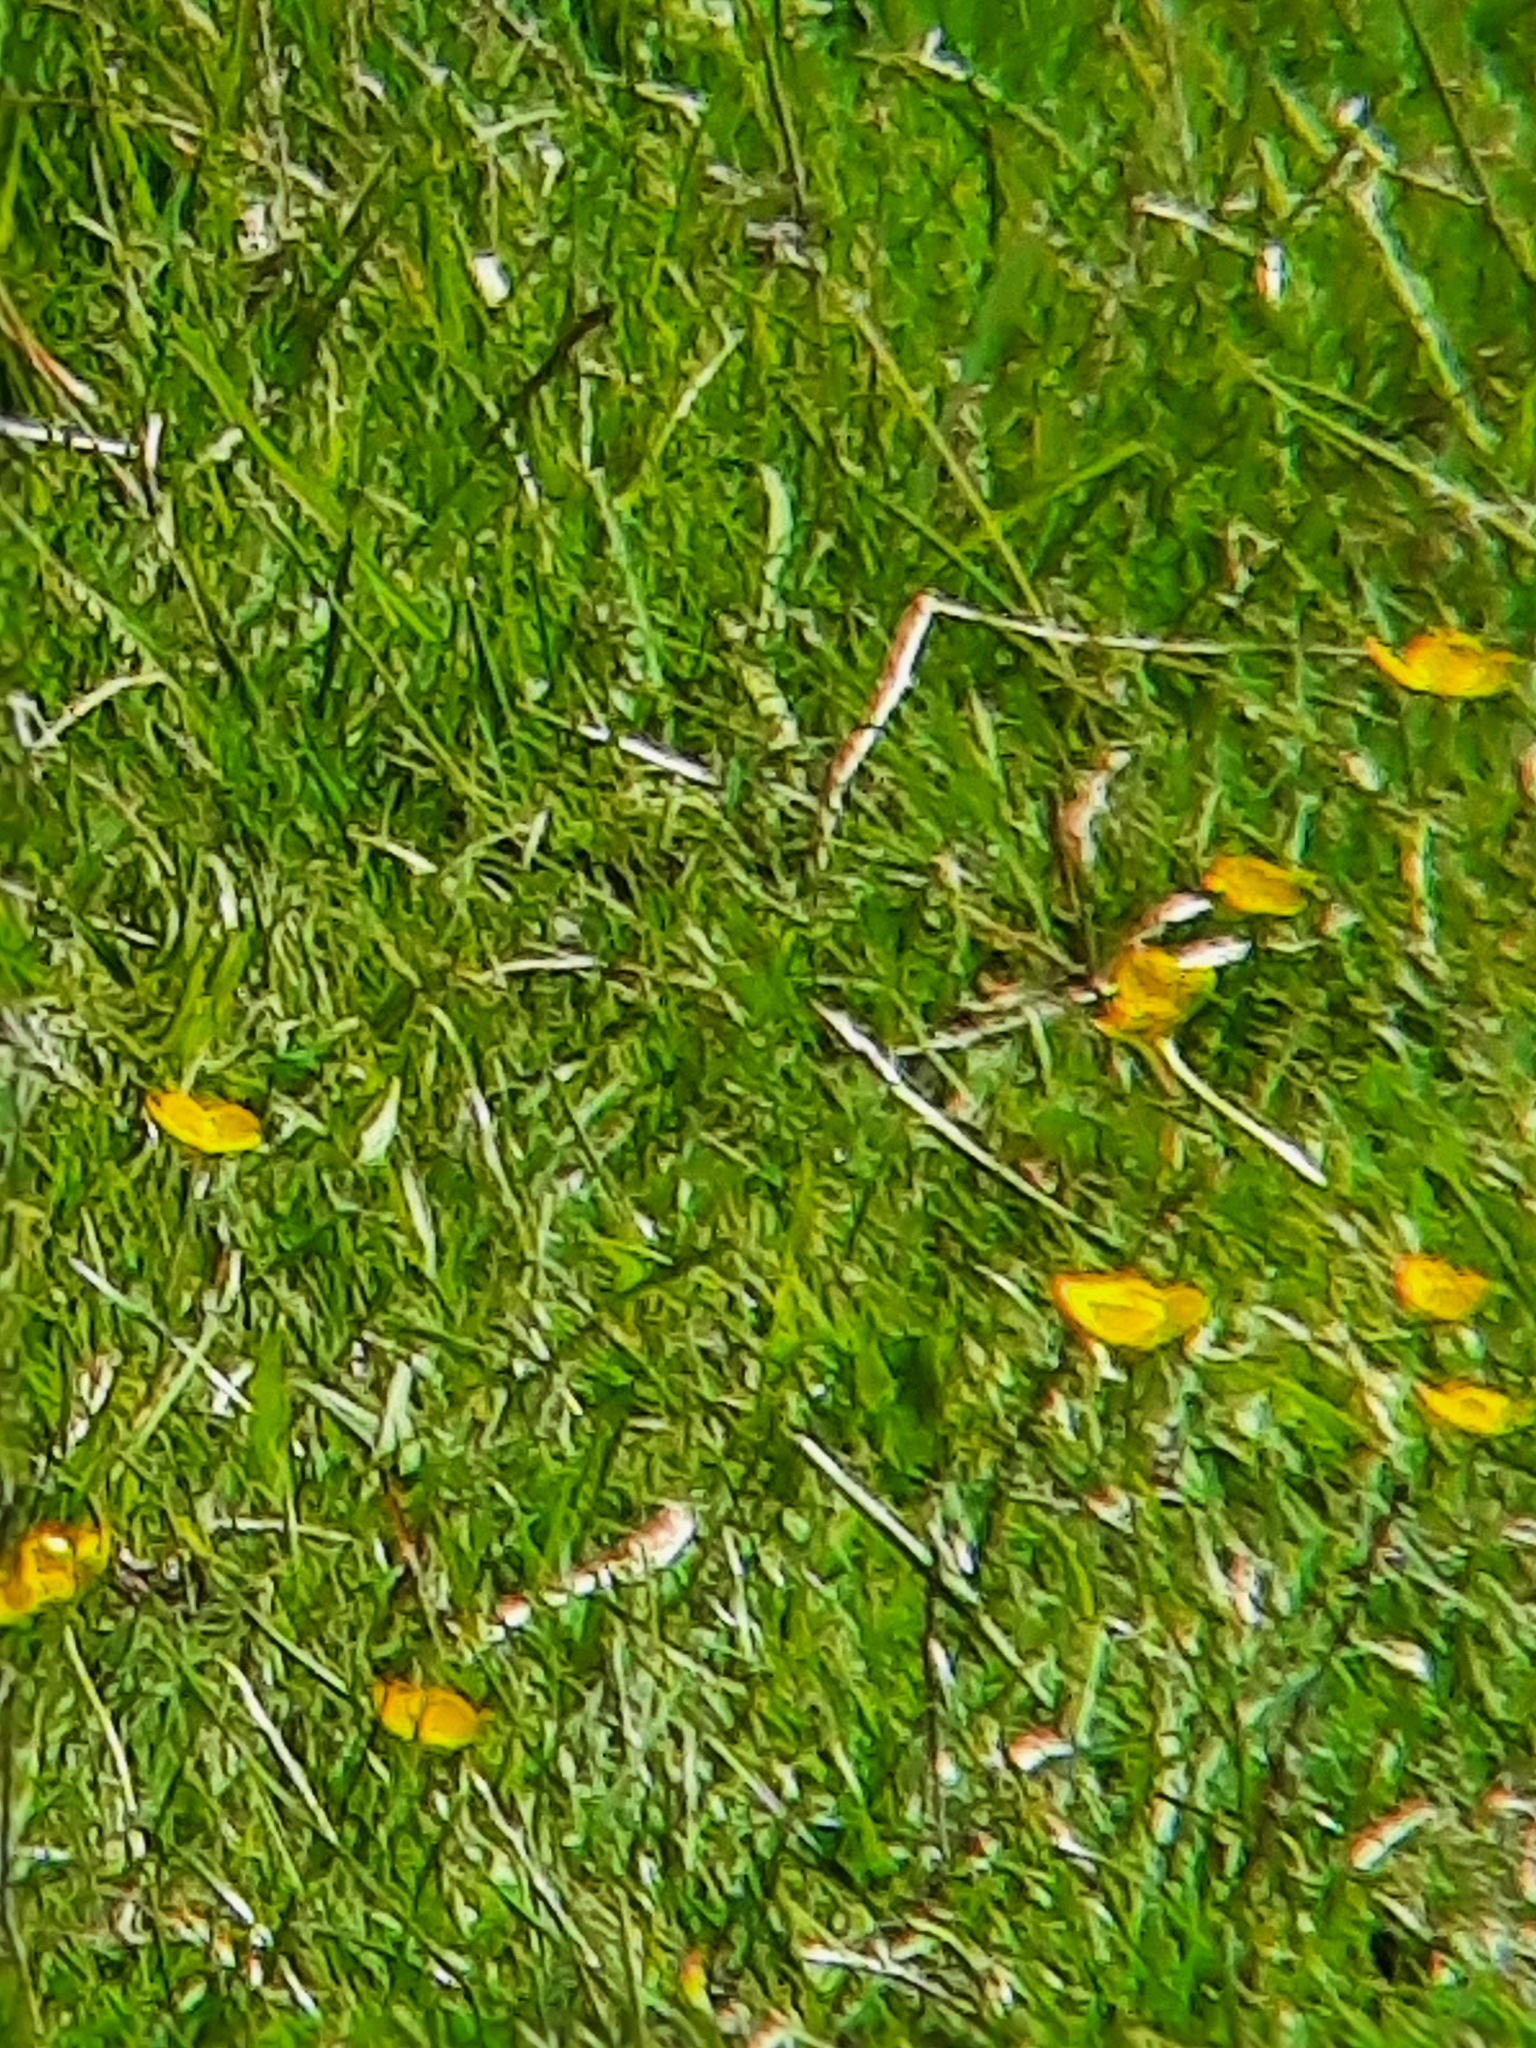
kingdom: Plantae
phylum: Tracheophyta
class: Magnoliopsida
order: Ranunculales
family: Ranunculaceae
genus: Ranunculus
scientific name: Ranunculus repens
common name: Creeping buttercup
